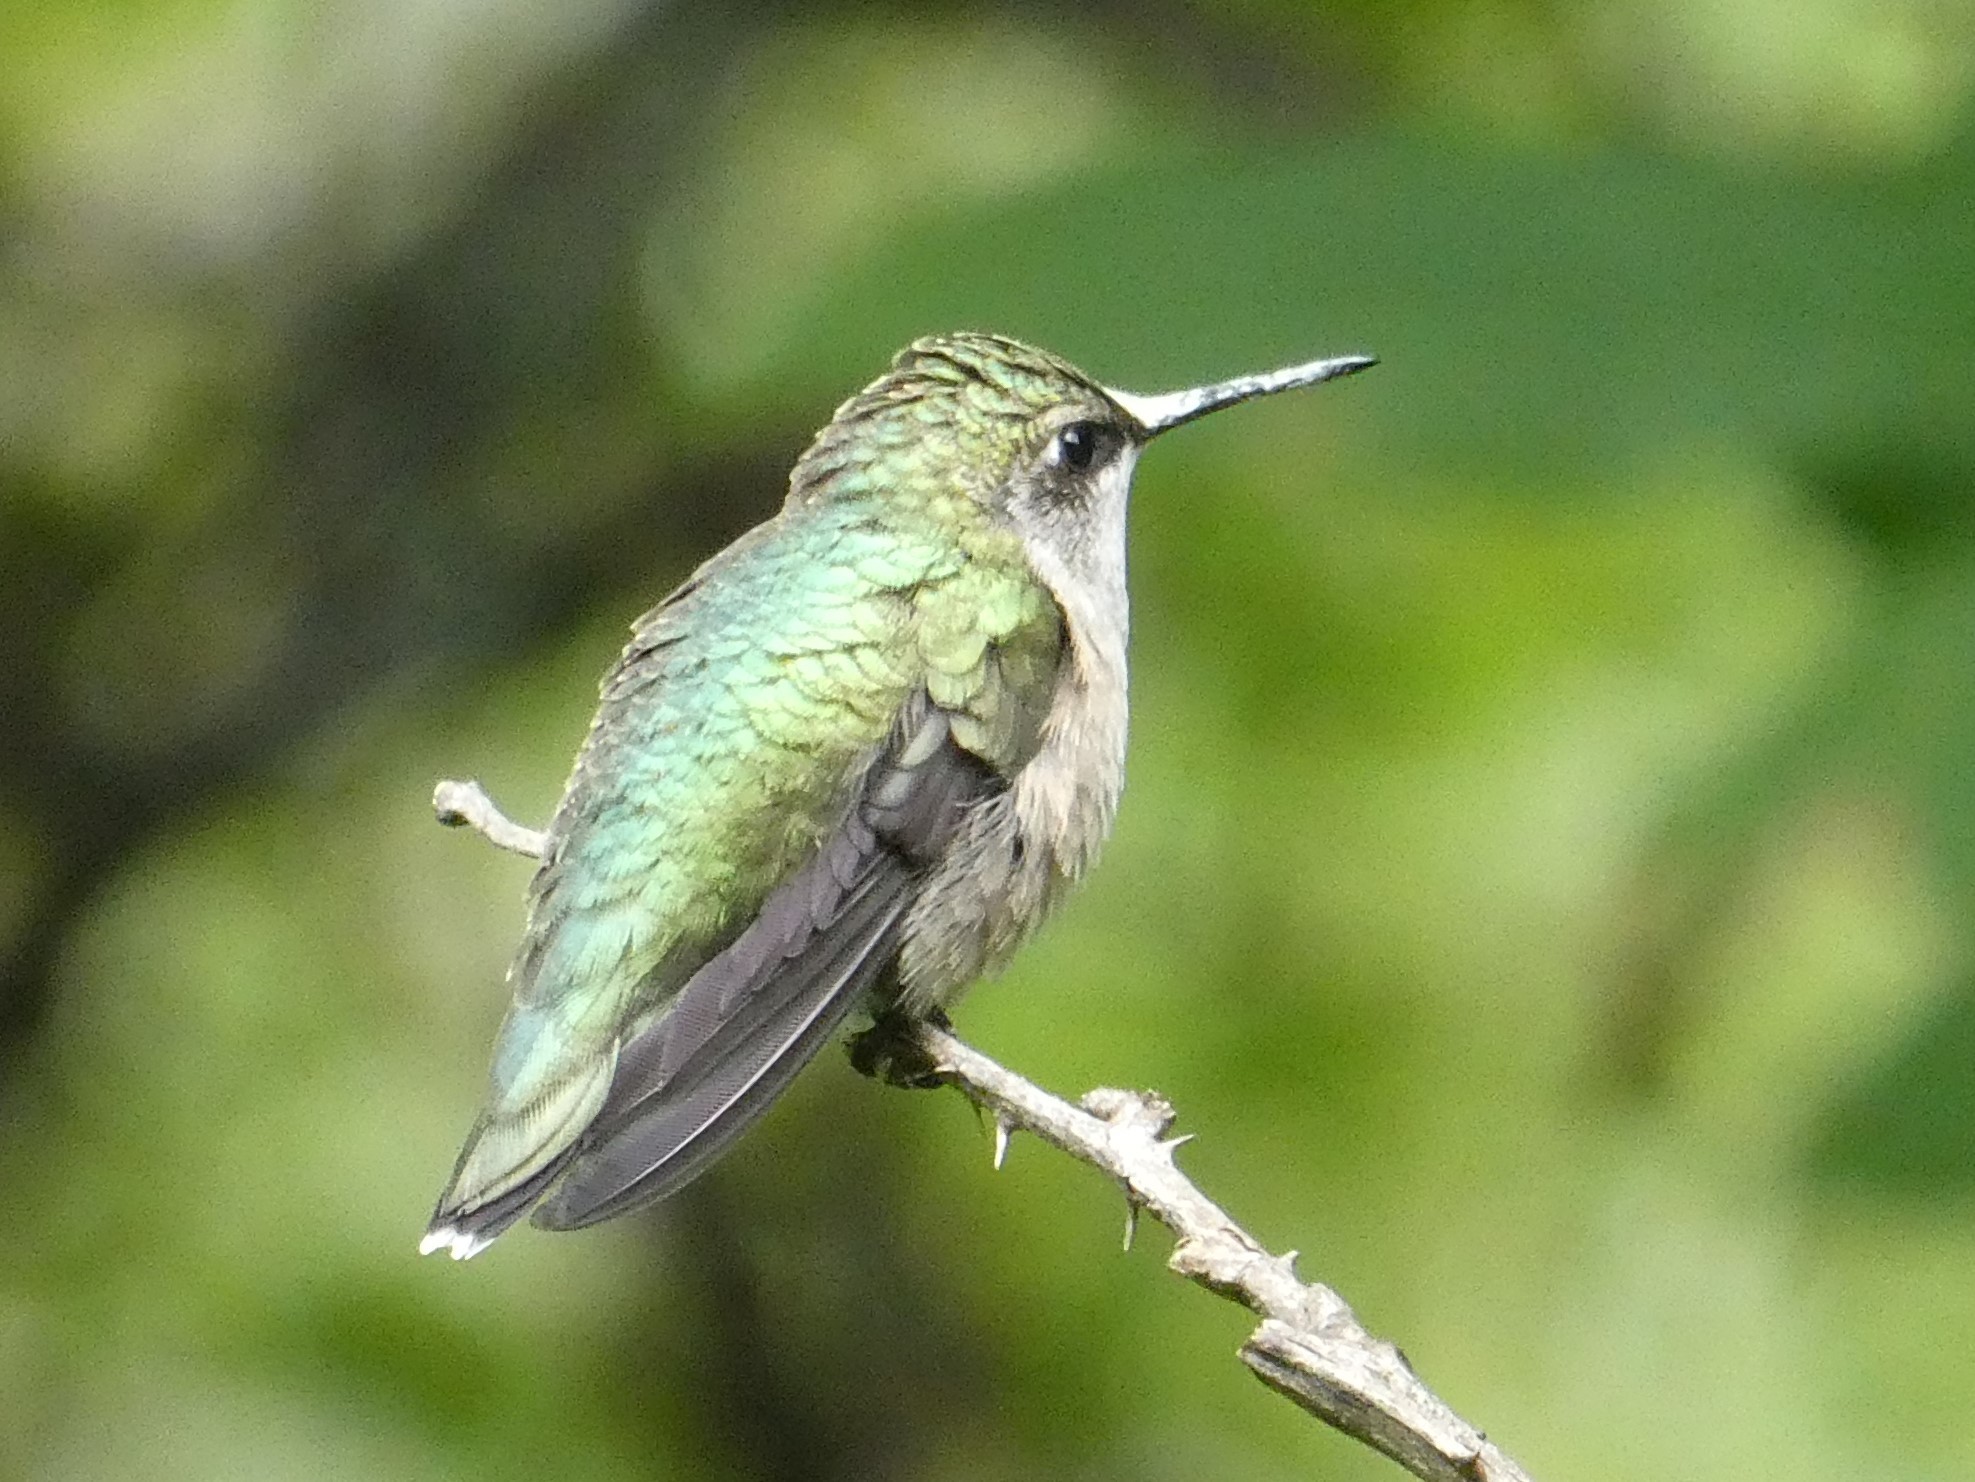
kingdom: Animalia
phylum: Chordata
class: Aves
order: Apodiformes
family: Trochilidae
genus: Archilochus
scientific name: Archilochus colubris
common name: Ruby-throated hummingbird
